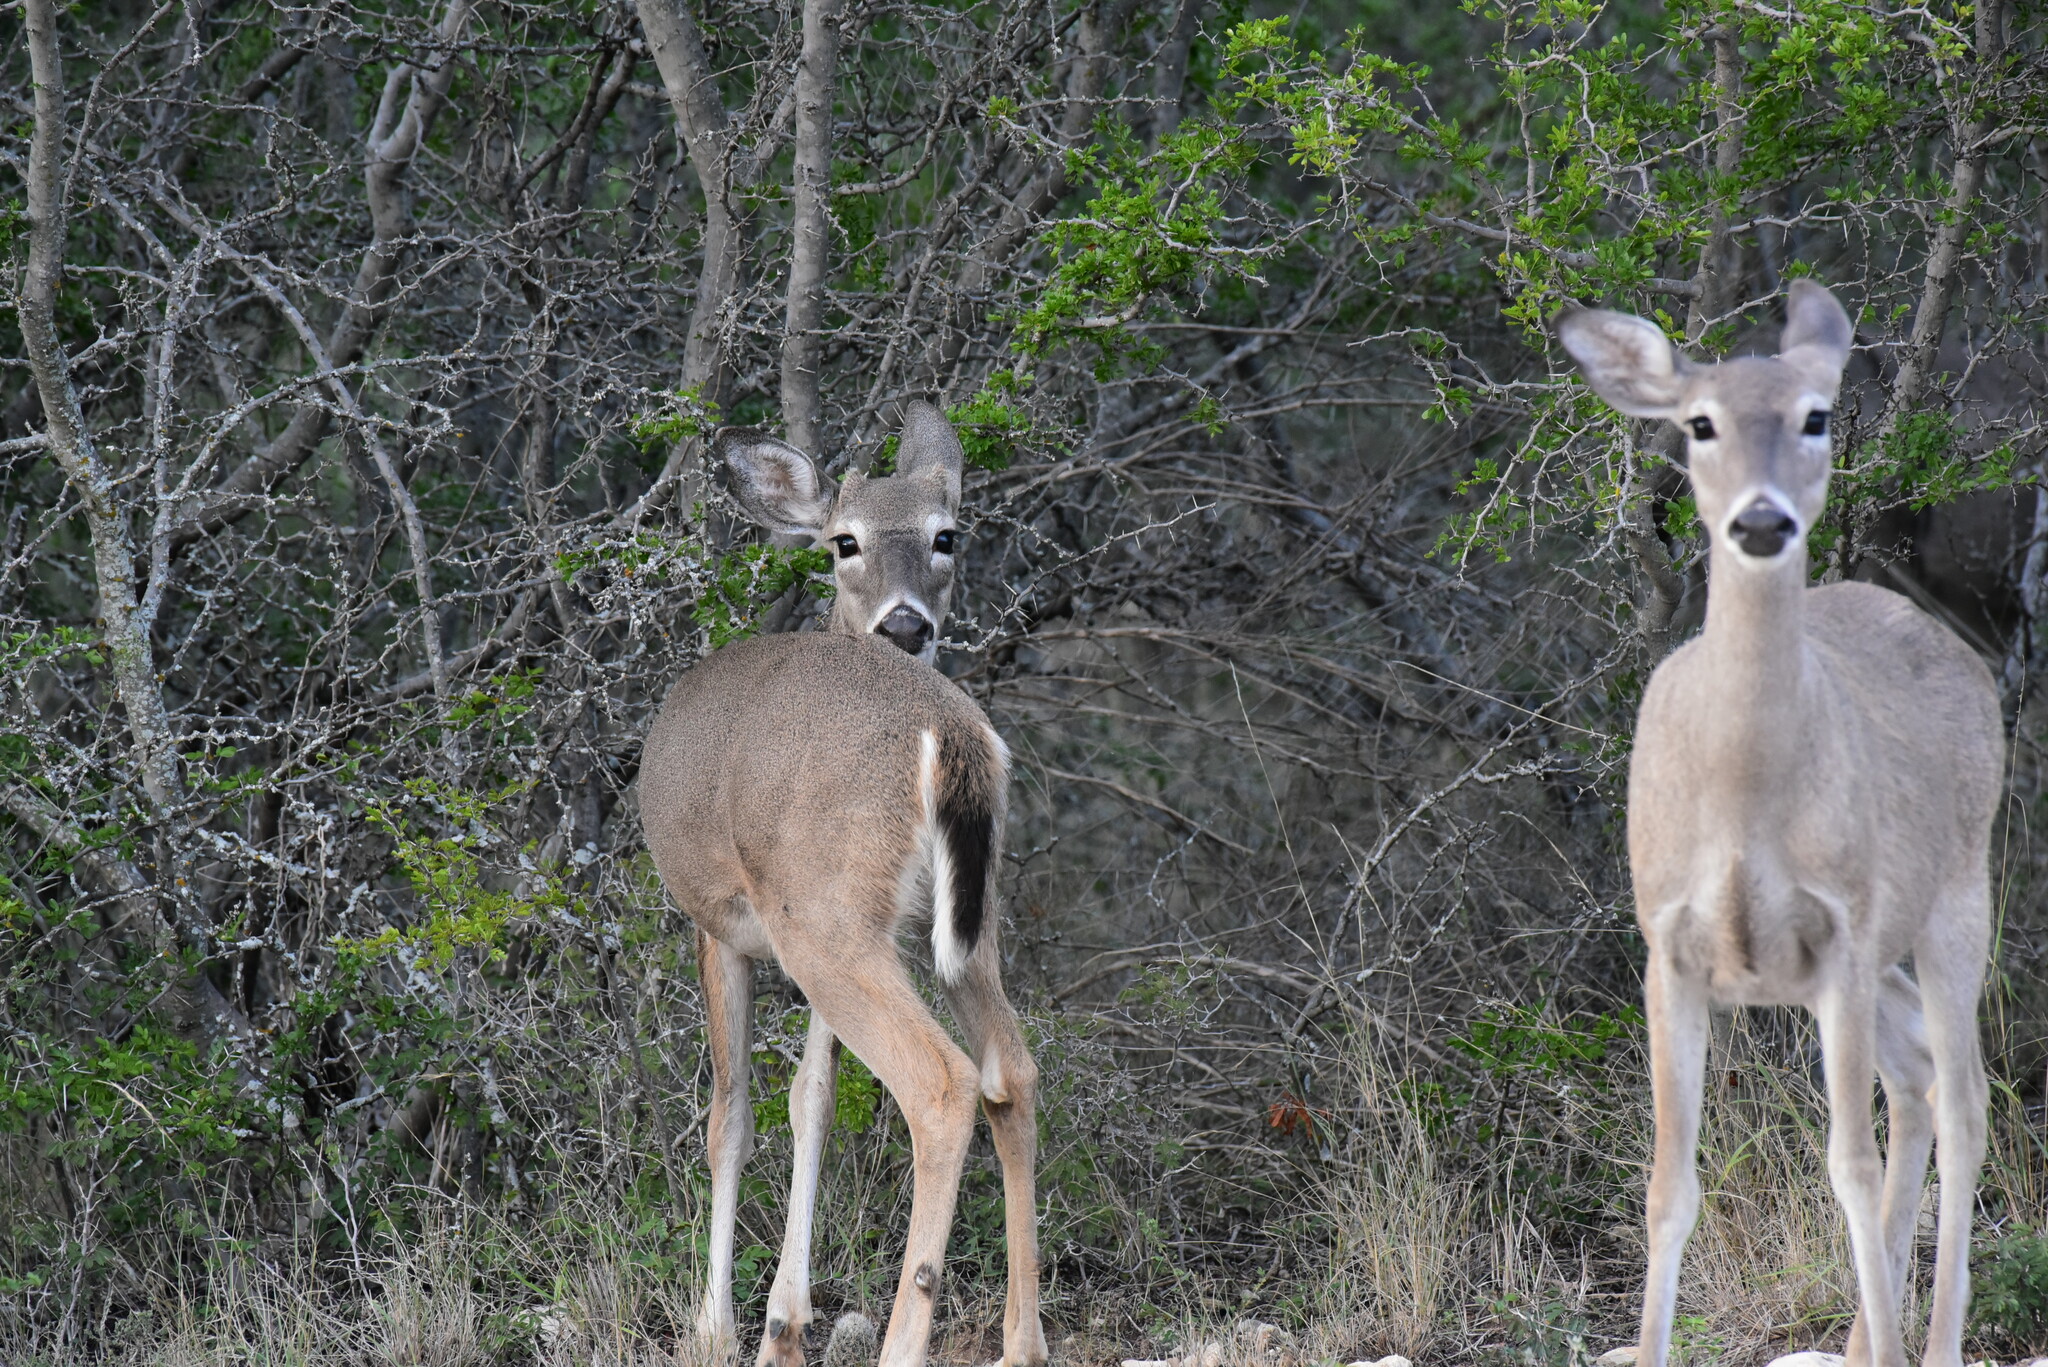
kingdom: Animalia
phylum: Chordata
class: Mammalia
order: Artiodactyla
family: Cervidae
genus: Odocoileus
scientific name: Odocoileus virginianus
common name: White-tailed deer
